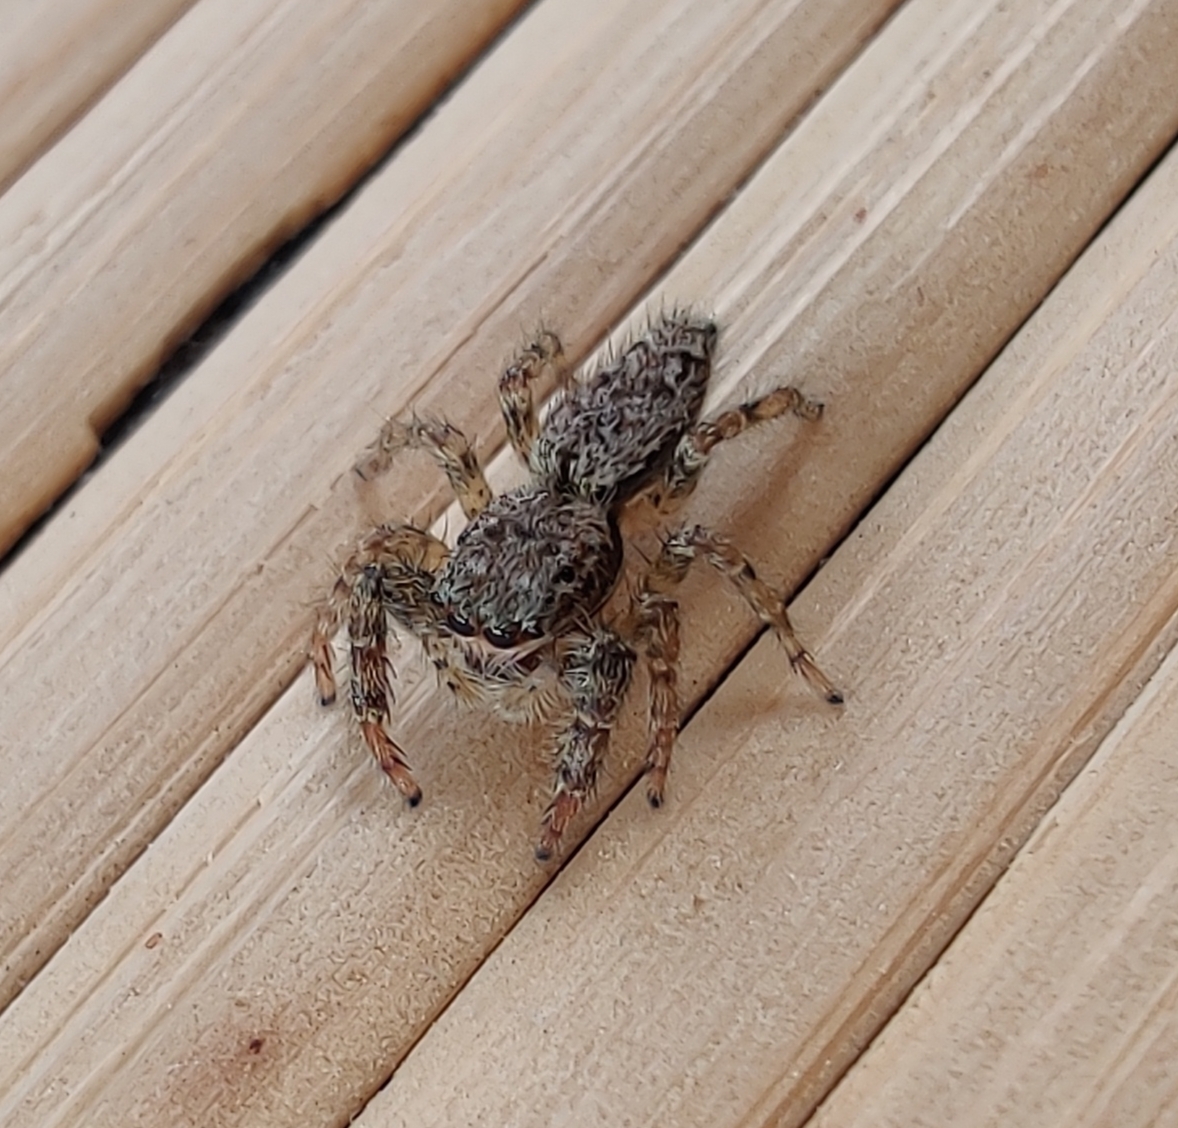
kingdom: Animalia
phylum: Arthropoda
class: Arachnida
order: Araneae
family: Salticidae
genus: Marpissa
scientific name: Marpissa muscosa
